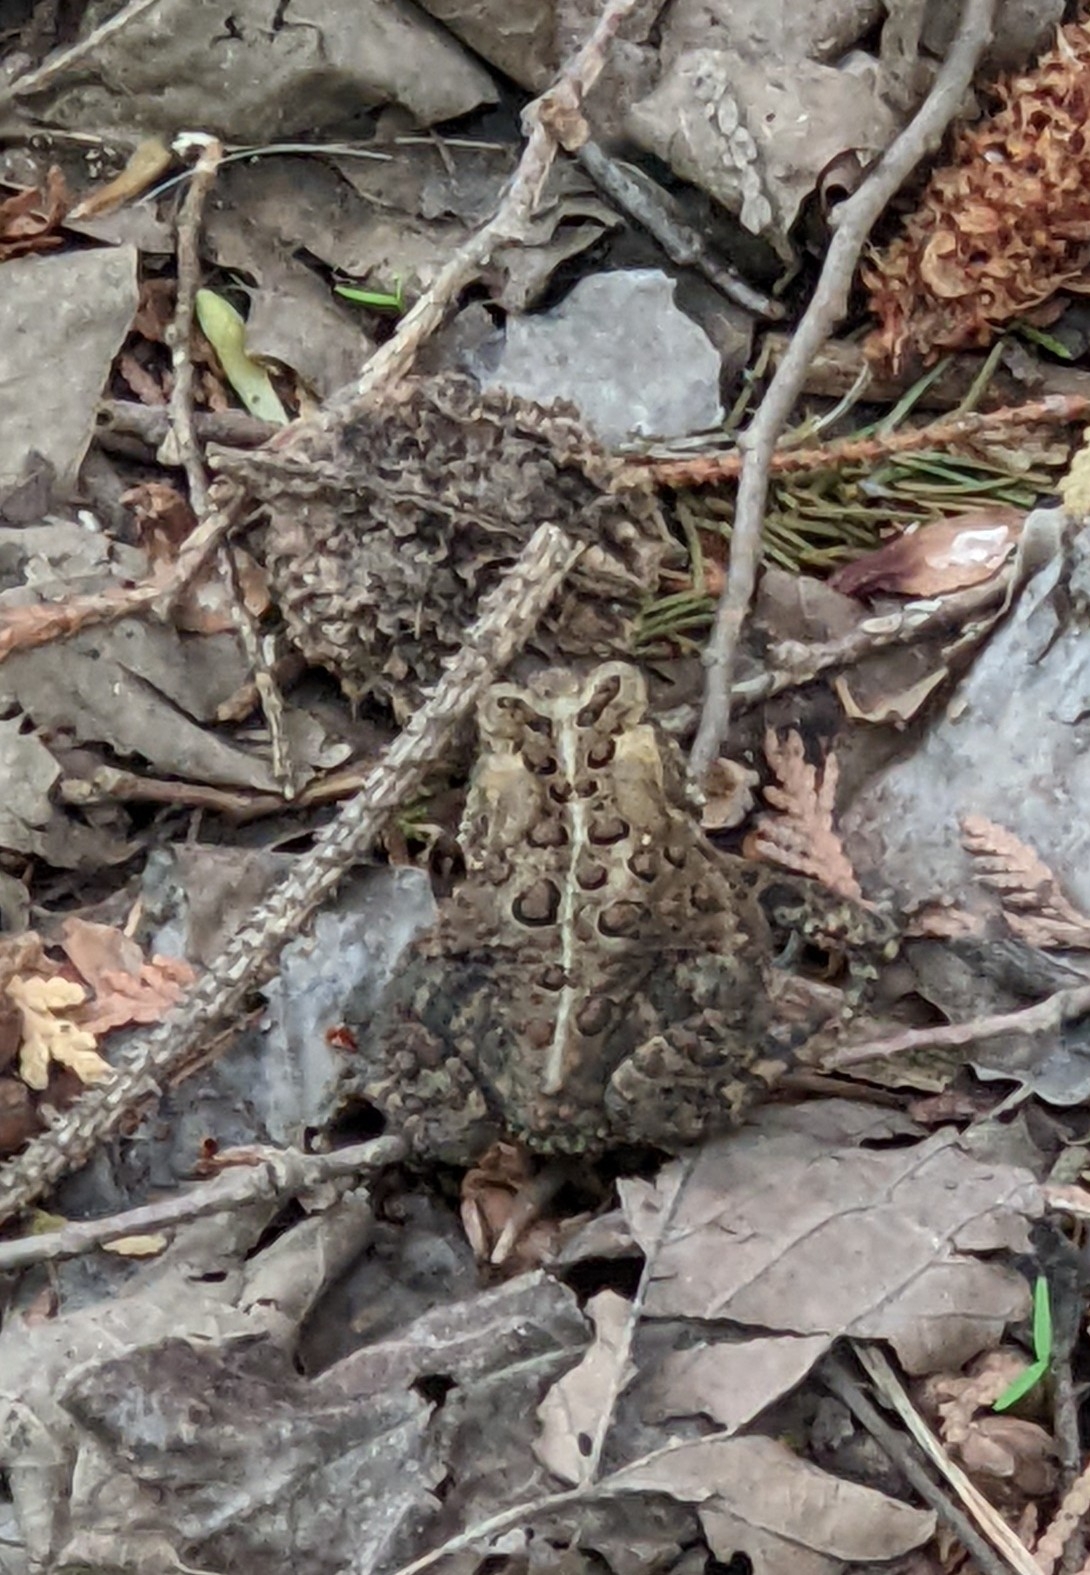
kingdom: Animalia
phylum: Chordata
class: Amphibia
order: Anura
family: Bufonidae
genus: Anaxyrus
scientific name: Anaxyrus americanus
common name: American toad
